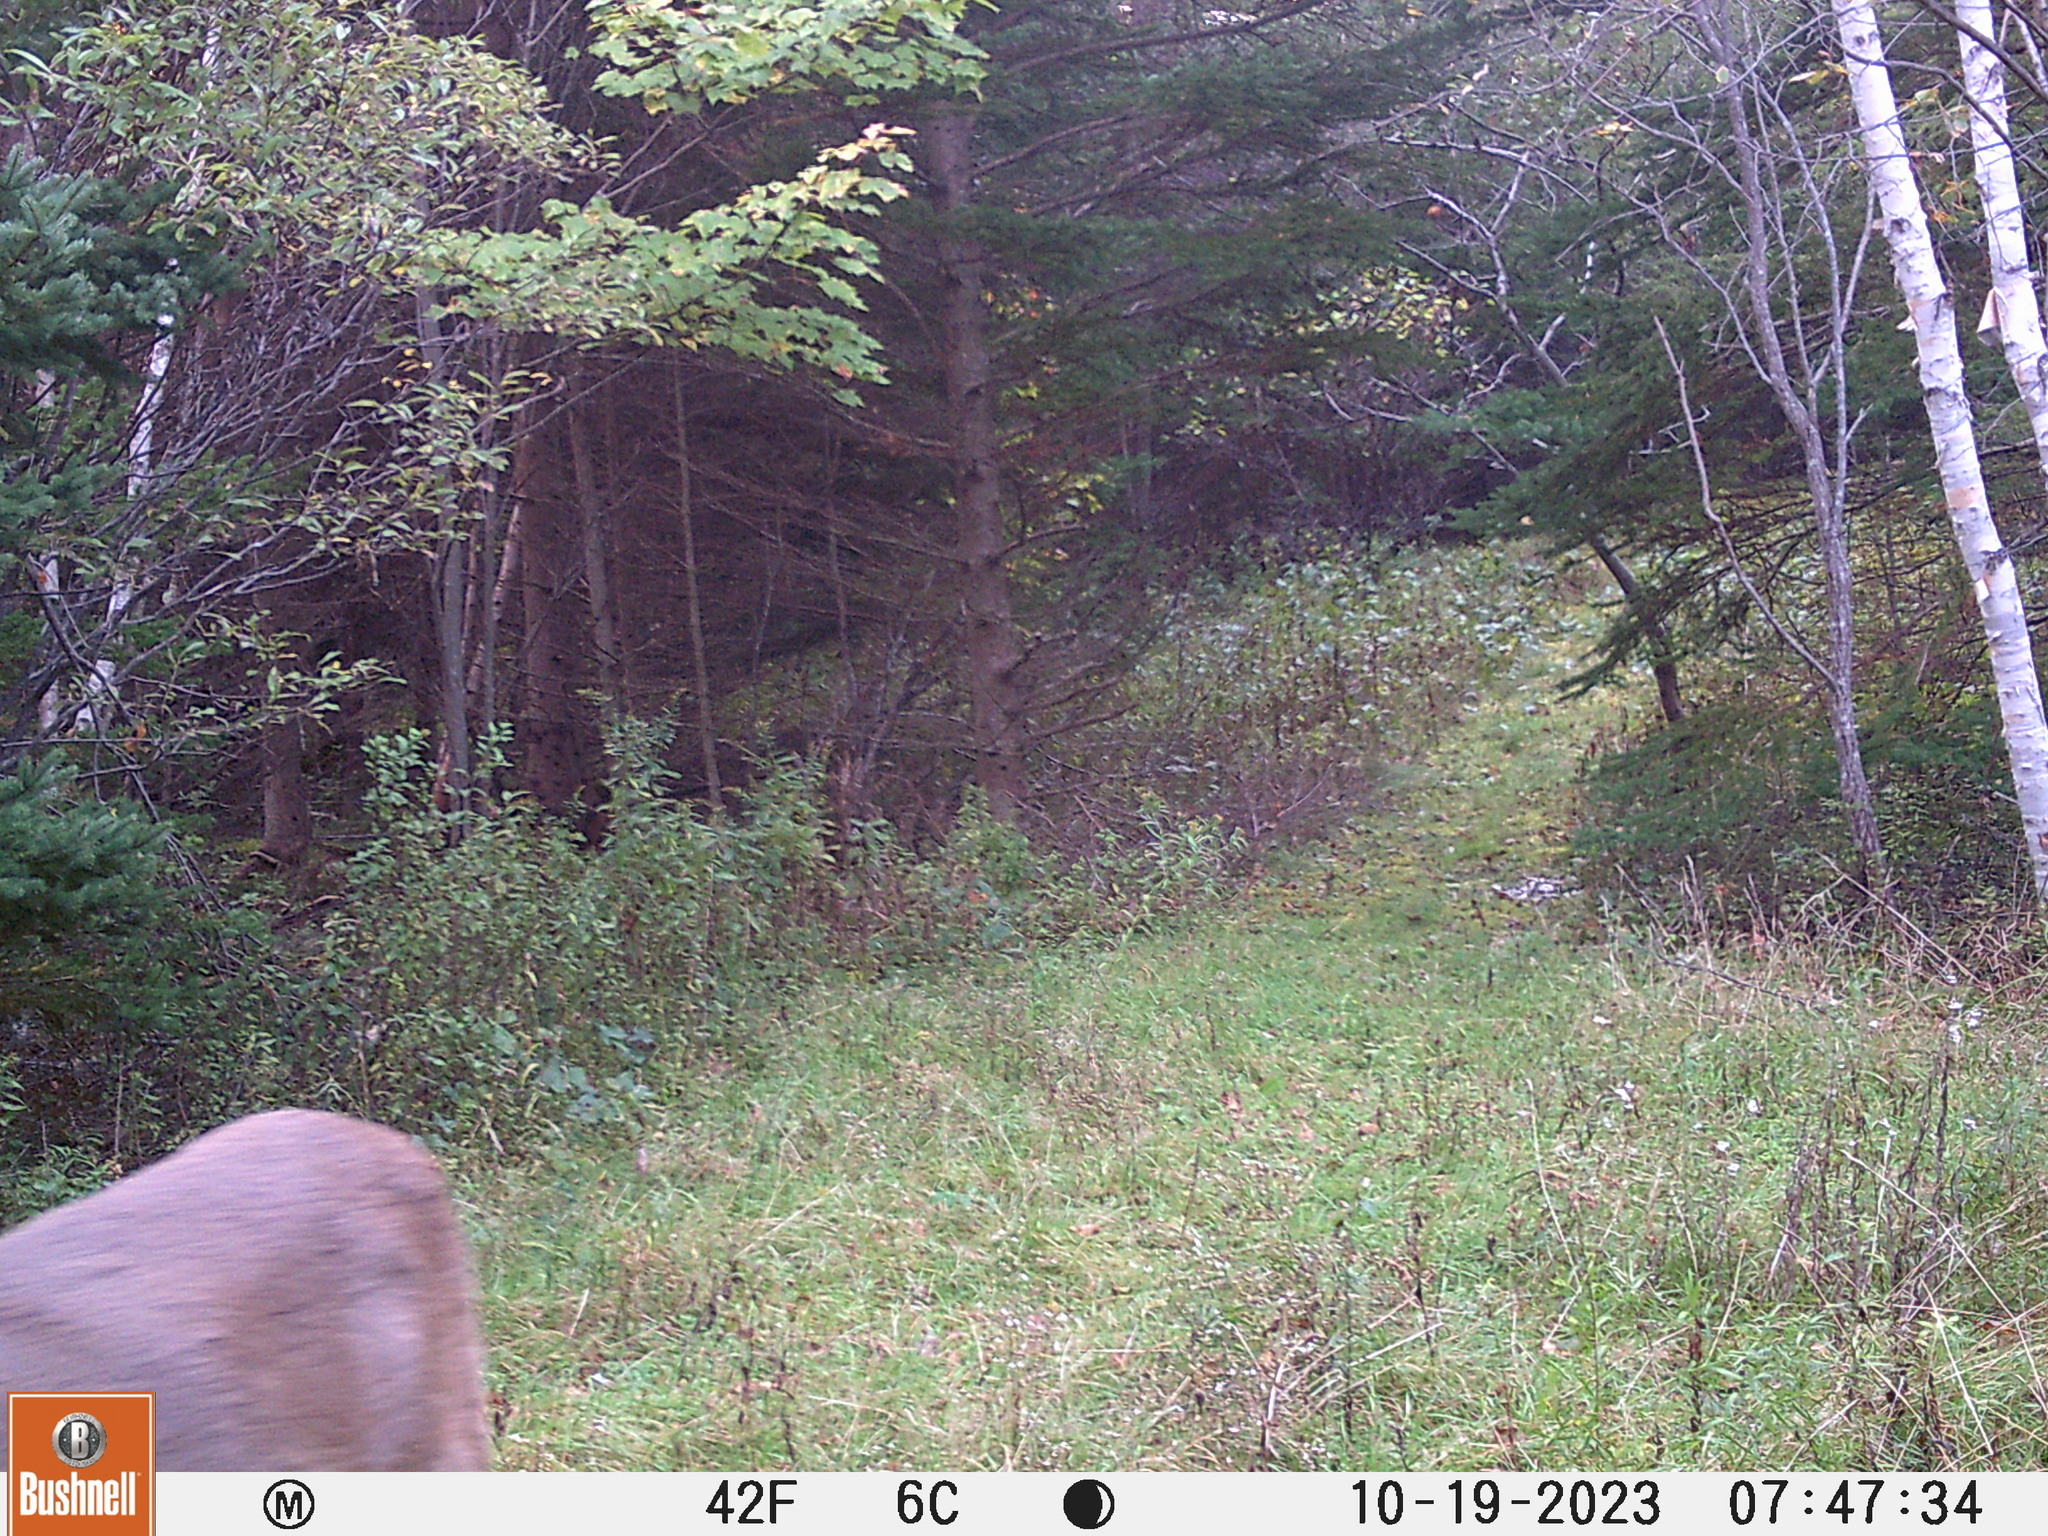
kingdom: Animalia
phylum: Chordata
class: Mammalia
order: Artiodactyla
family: Cervidae
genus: Odocoileus
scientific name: Odocoileus virginianus
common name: White-tailed deer
